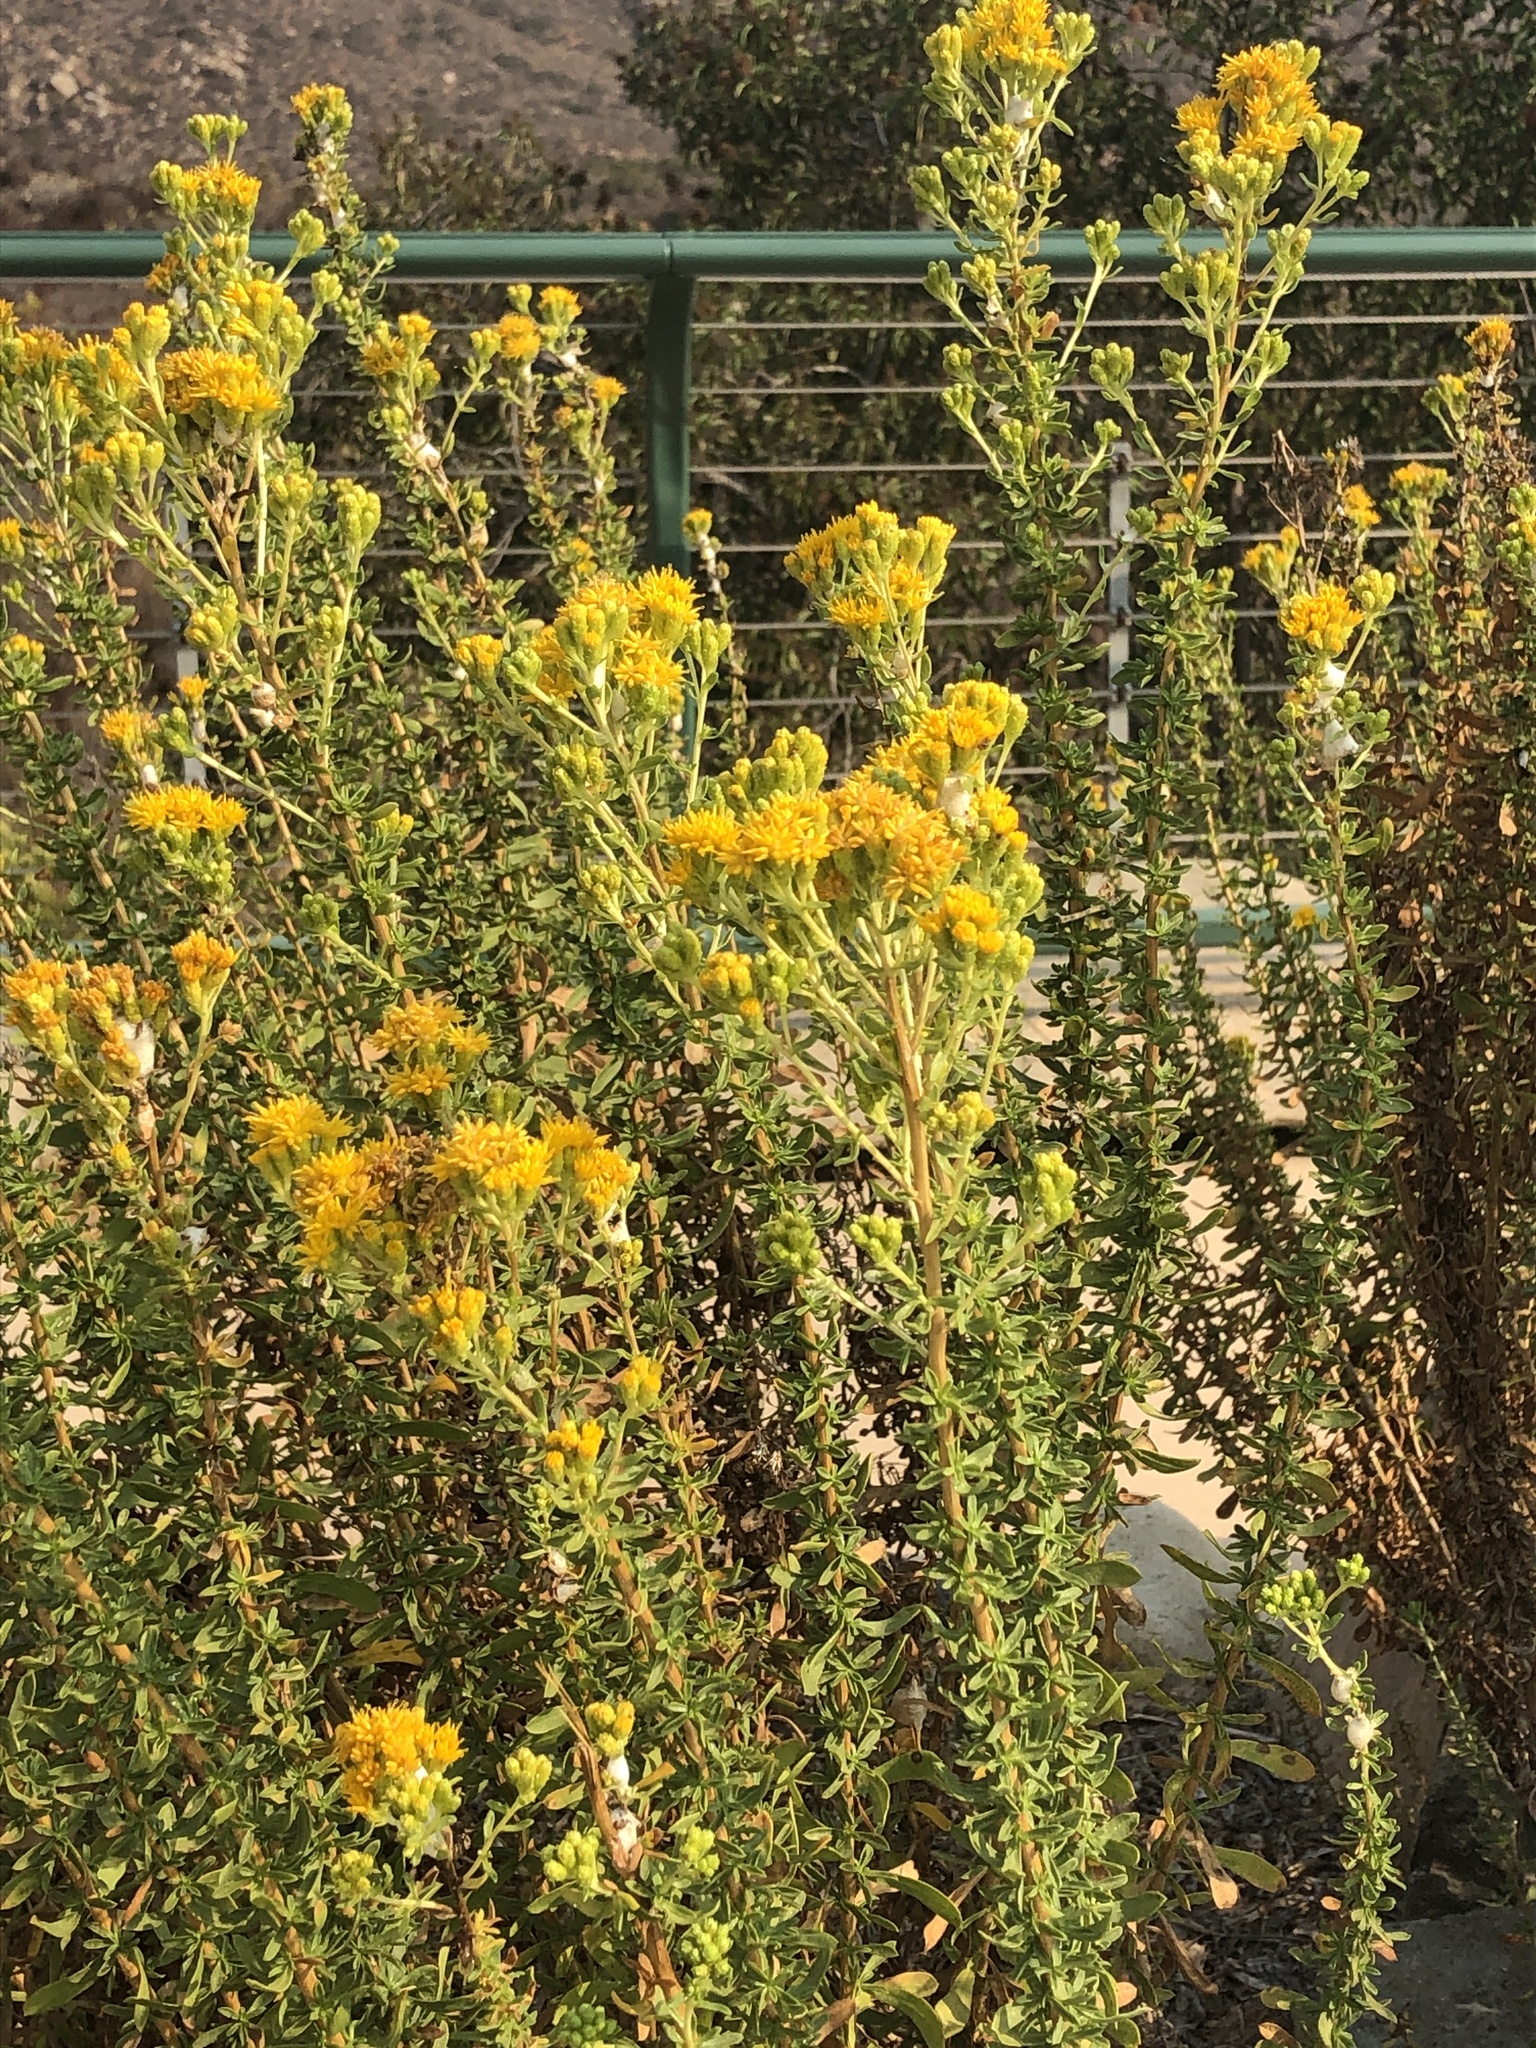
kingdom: Plantae
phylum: Tracheophyta
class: Magnoliopsida
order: Asterales
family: Asteraceae
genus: Isocoma
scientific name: Isocoma menziesii
